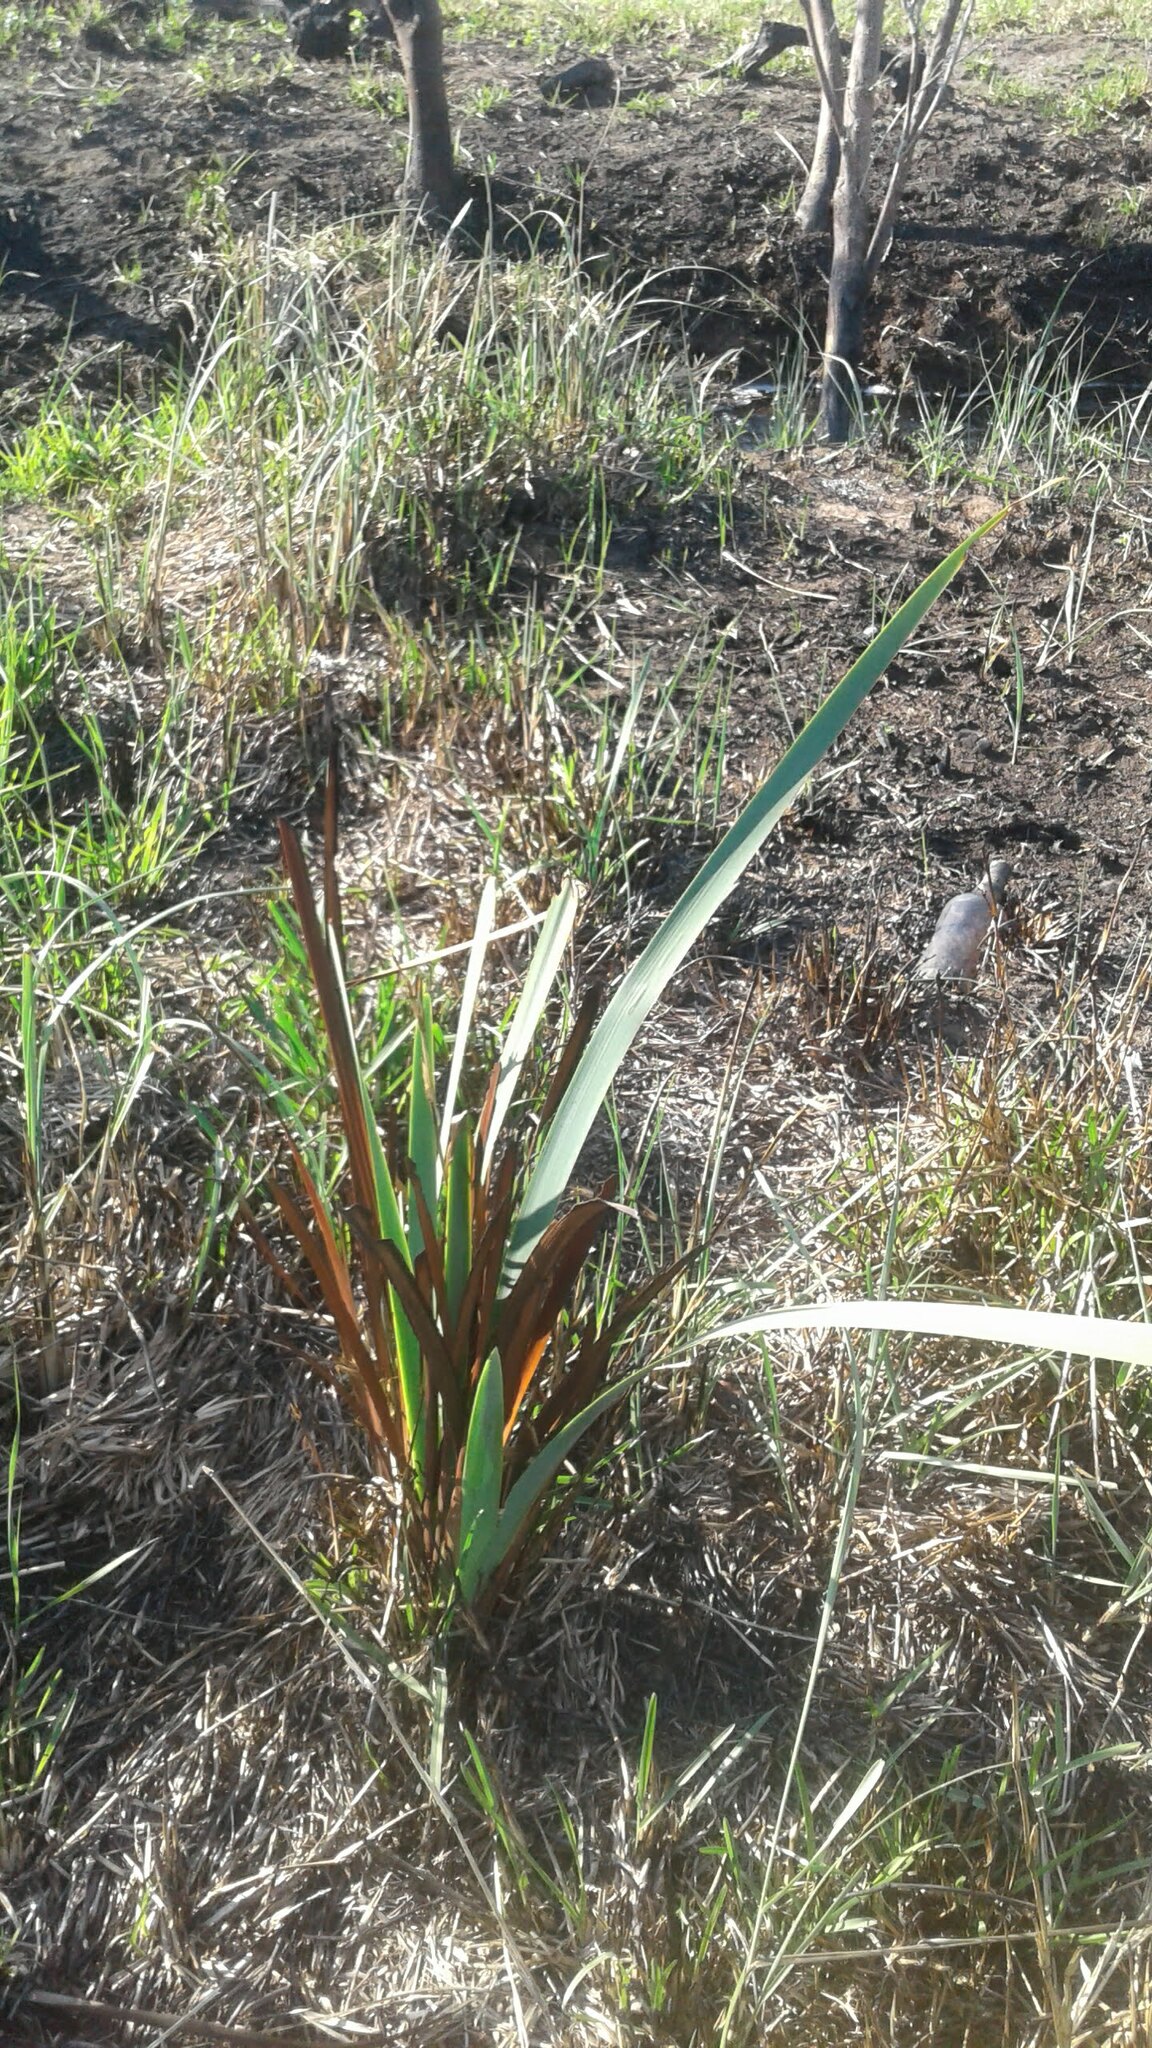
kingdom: Plantae
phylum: Tracheophyta
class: Liliopsida
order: Asparagales
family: Iridaceae
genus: Aristea
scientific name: Aristea capitata
